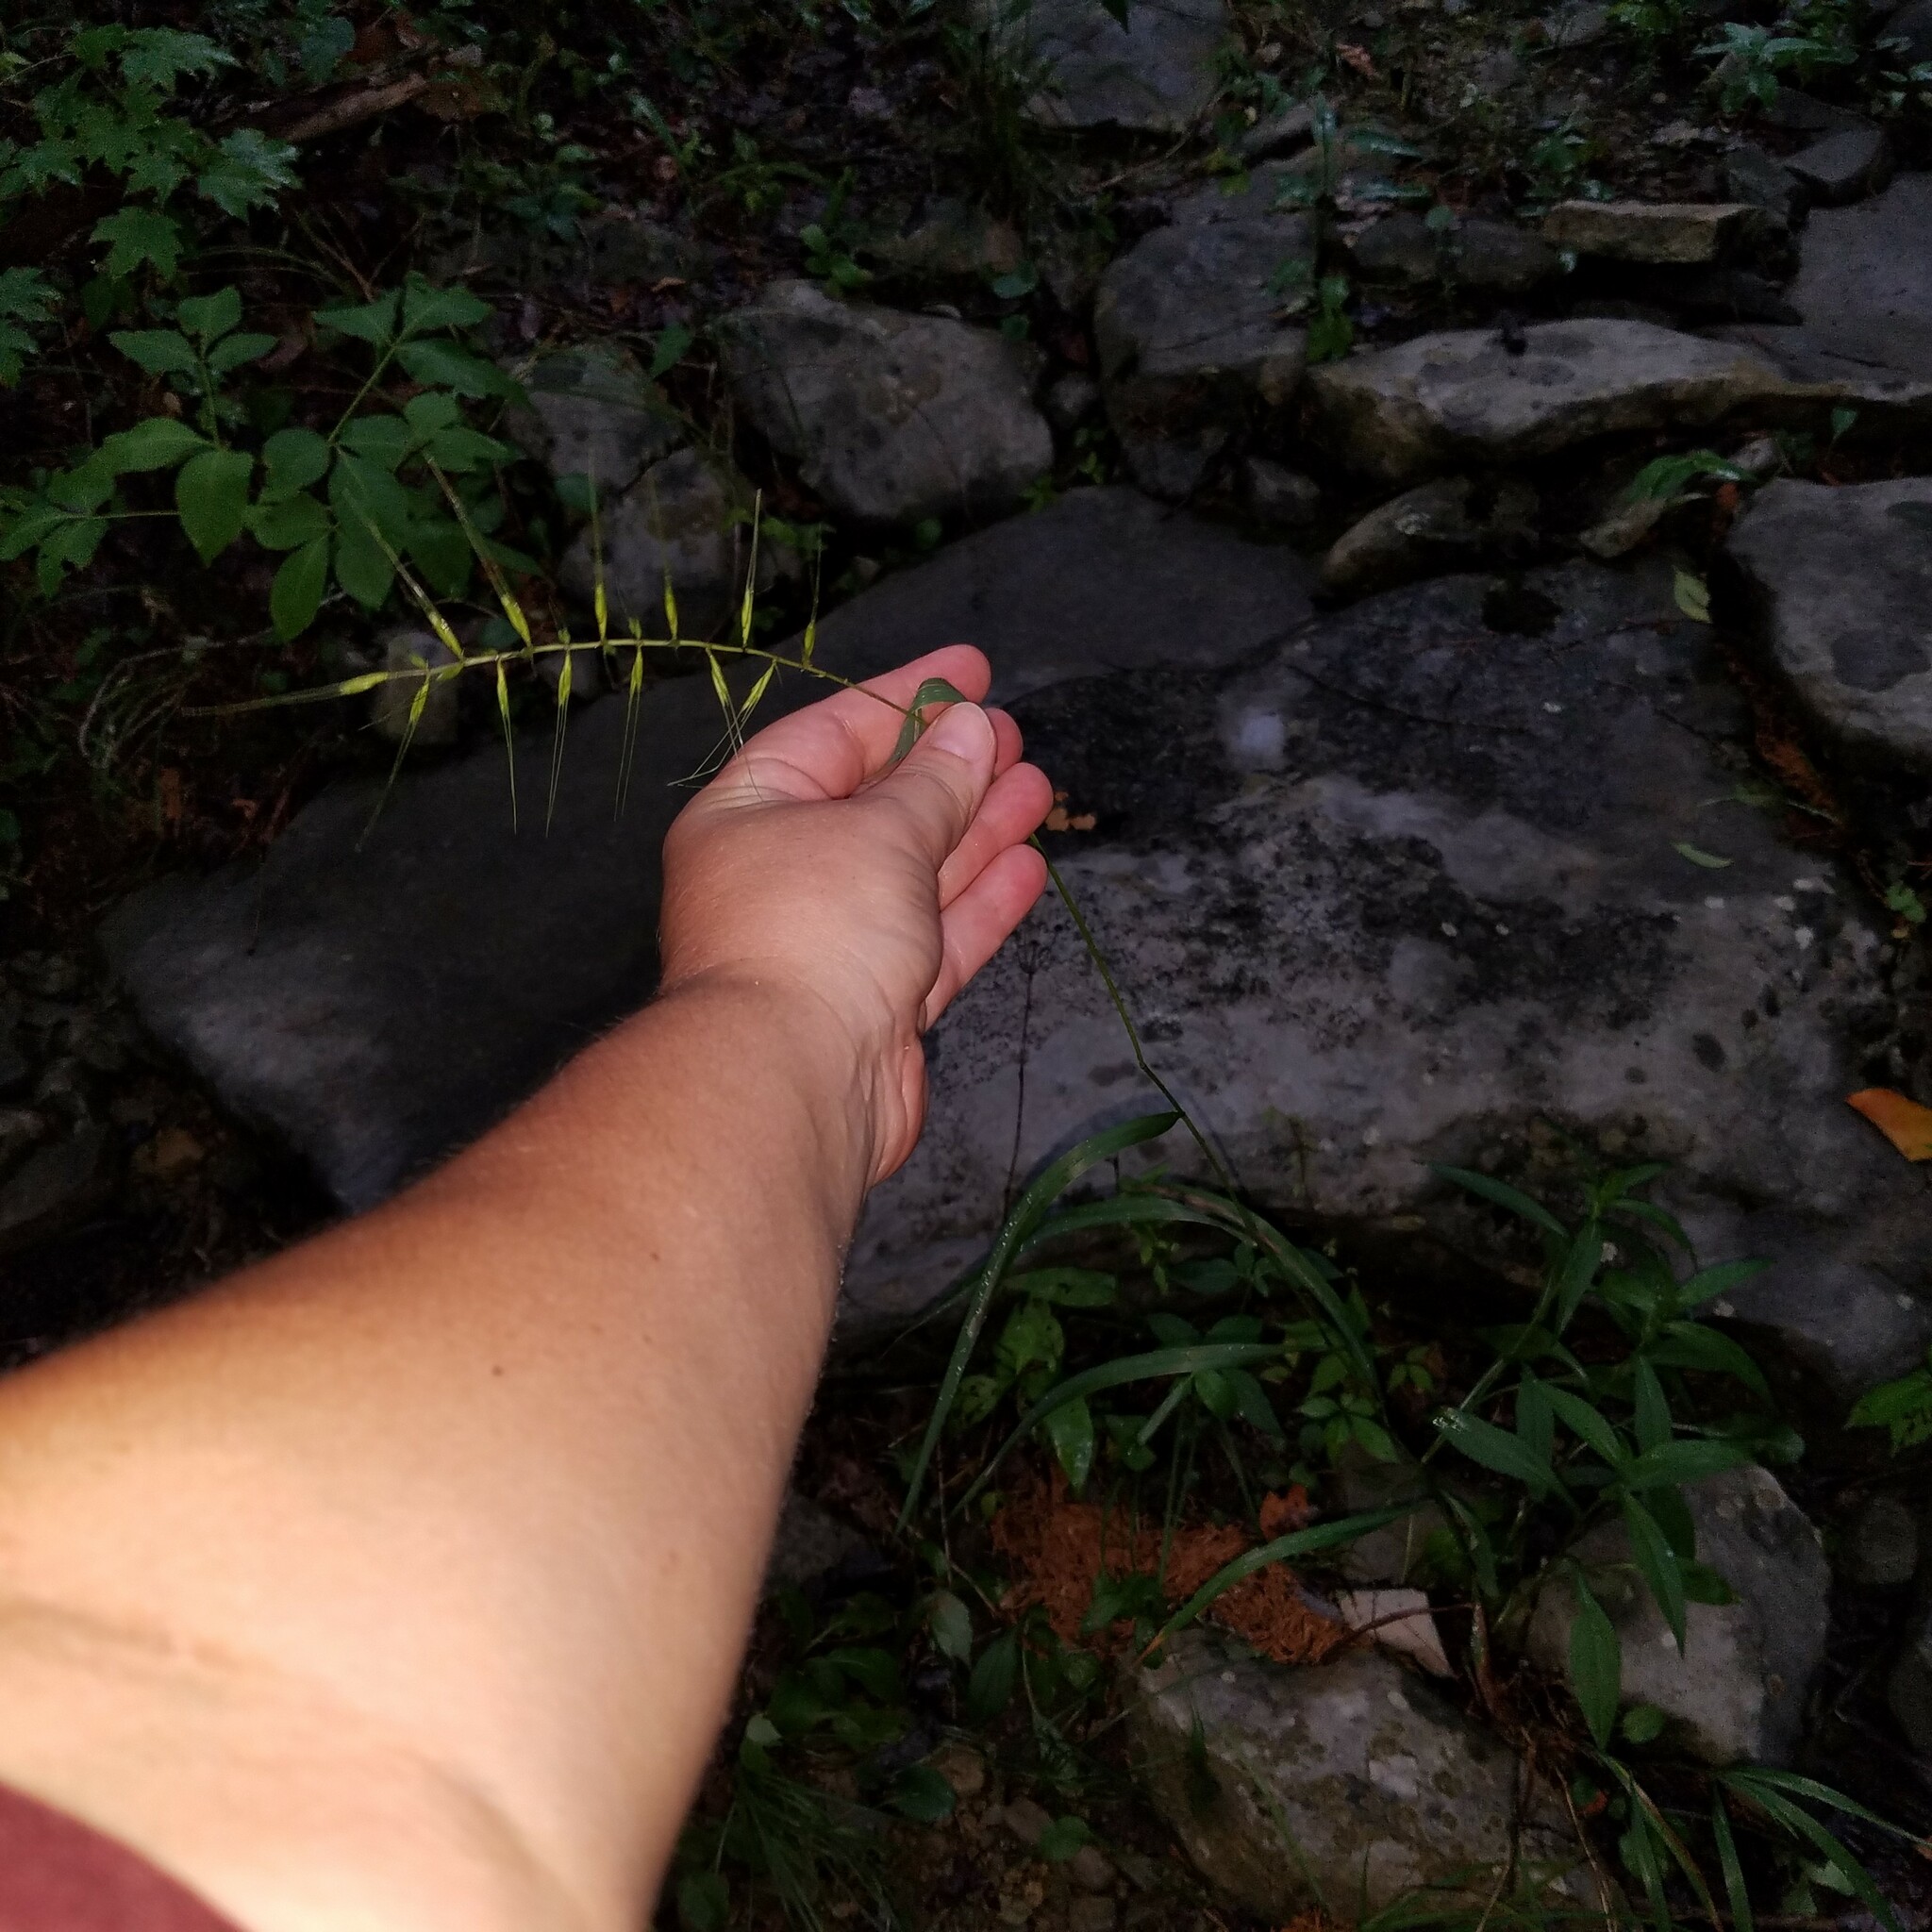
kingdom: Plantae
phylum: Tracheophyta
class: Liliopsida
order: Poales
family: Poaceae
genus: Elymus
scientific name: Elymus hystrix
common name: Bottlebrush grass
